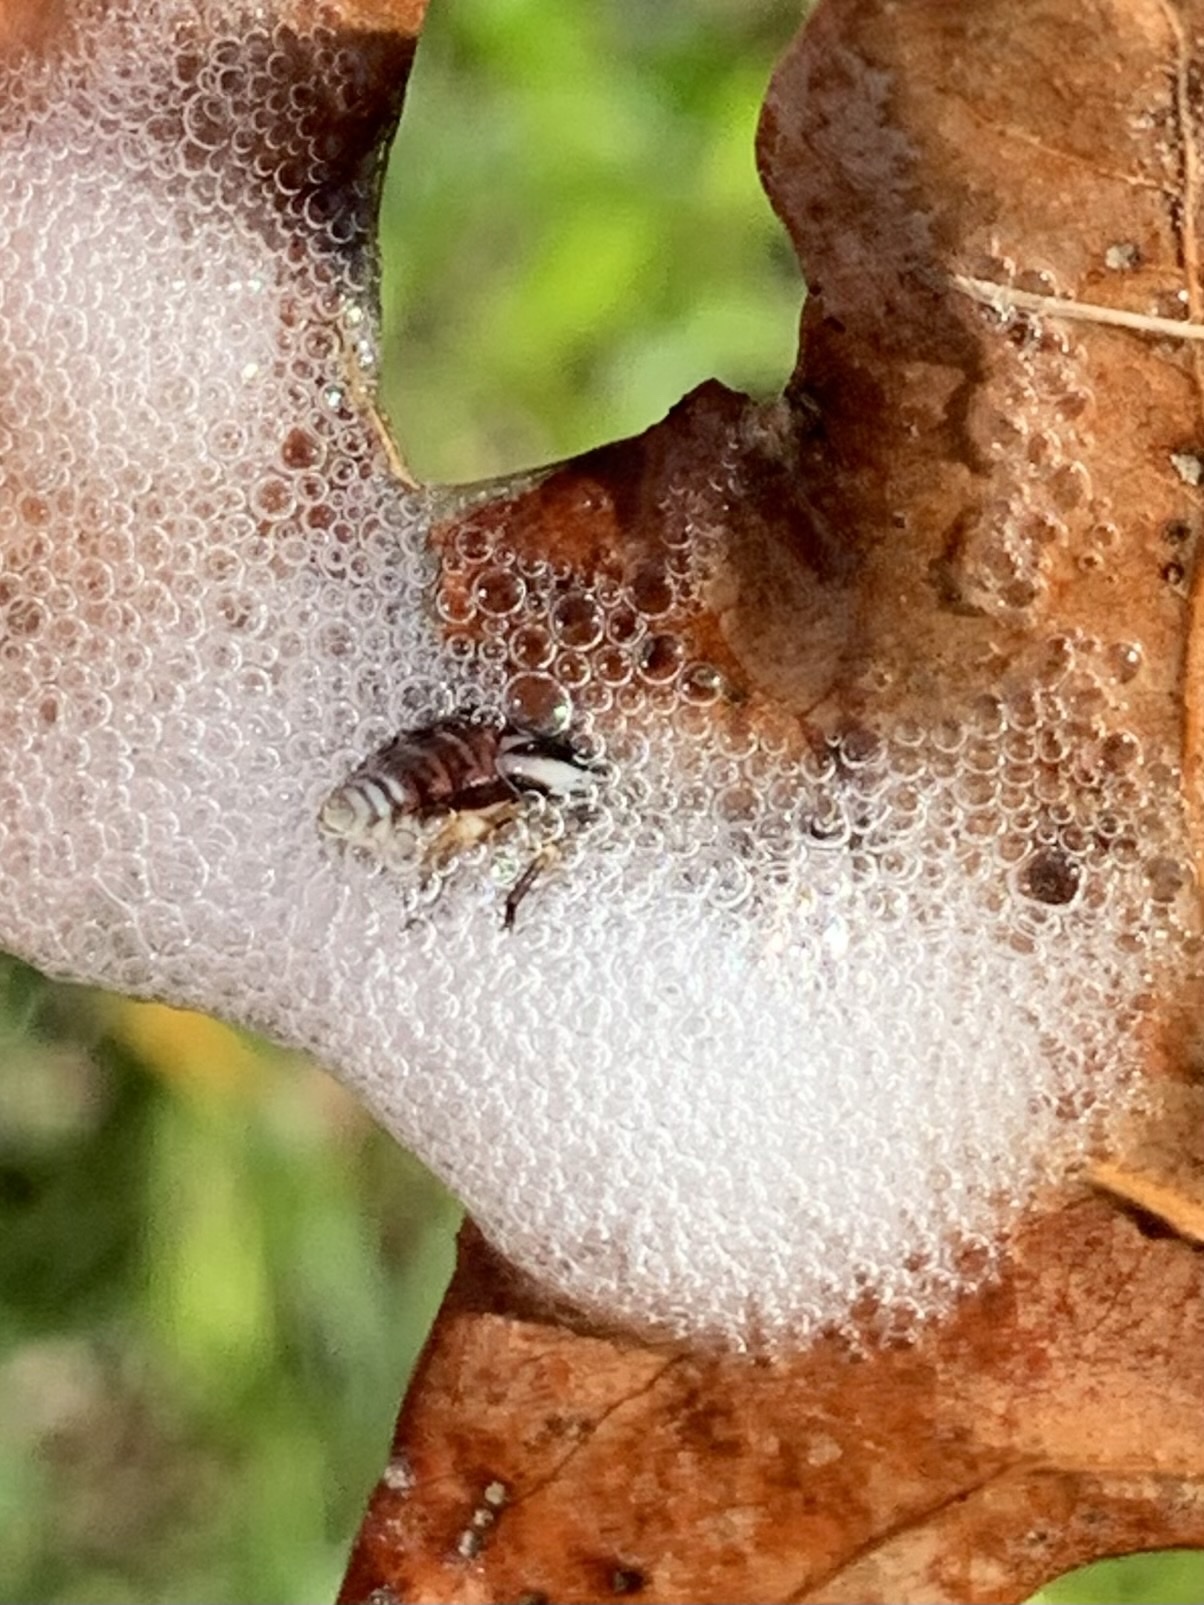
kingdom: Animalia
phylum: Arthropoda
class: Insecta
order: Hemiptera
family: Aphrophoridae
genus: Lepyronia
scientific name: Lepyronia gibbosa
